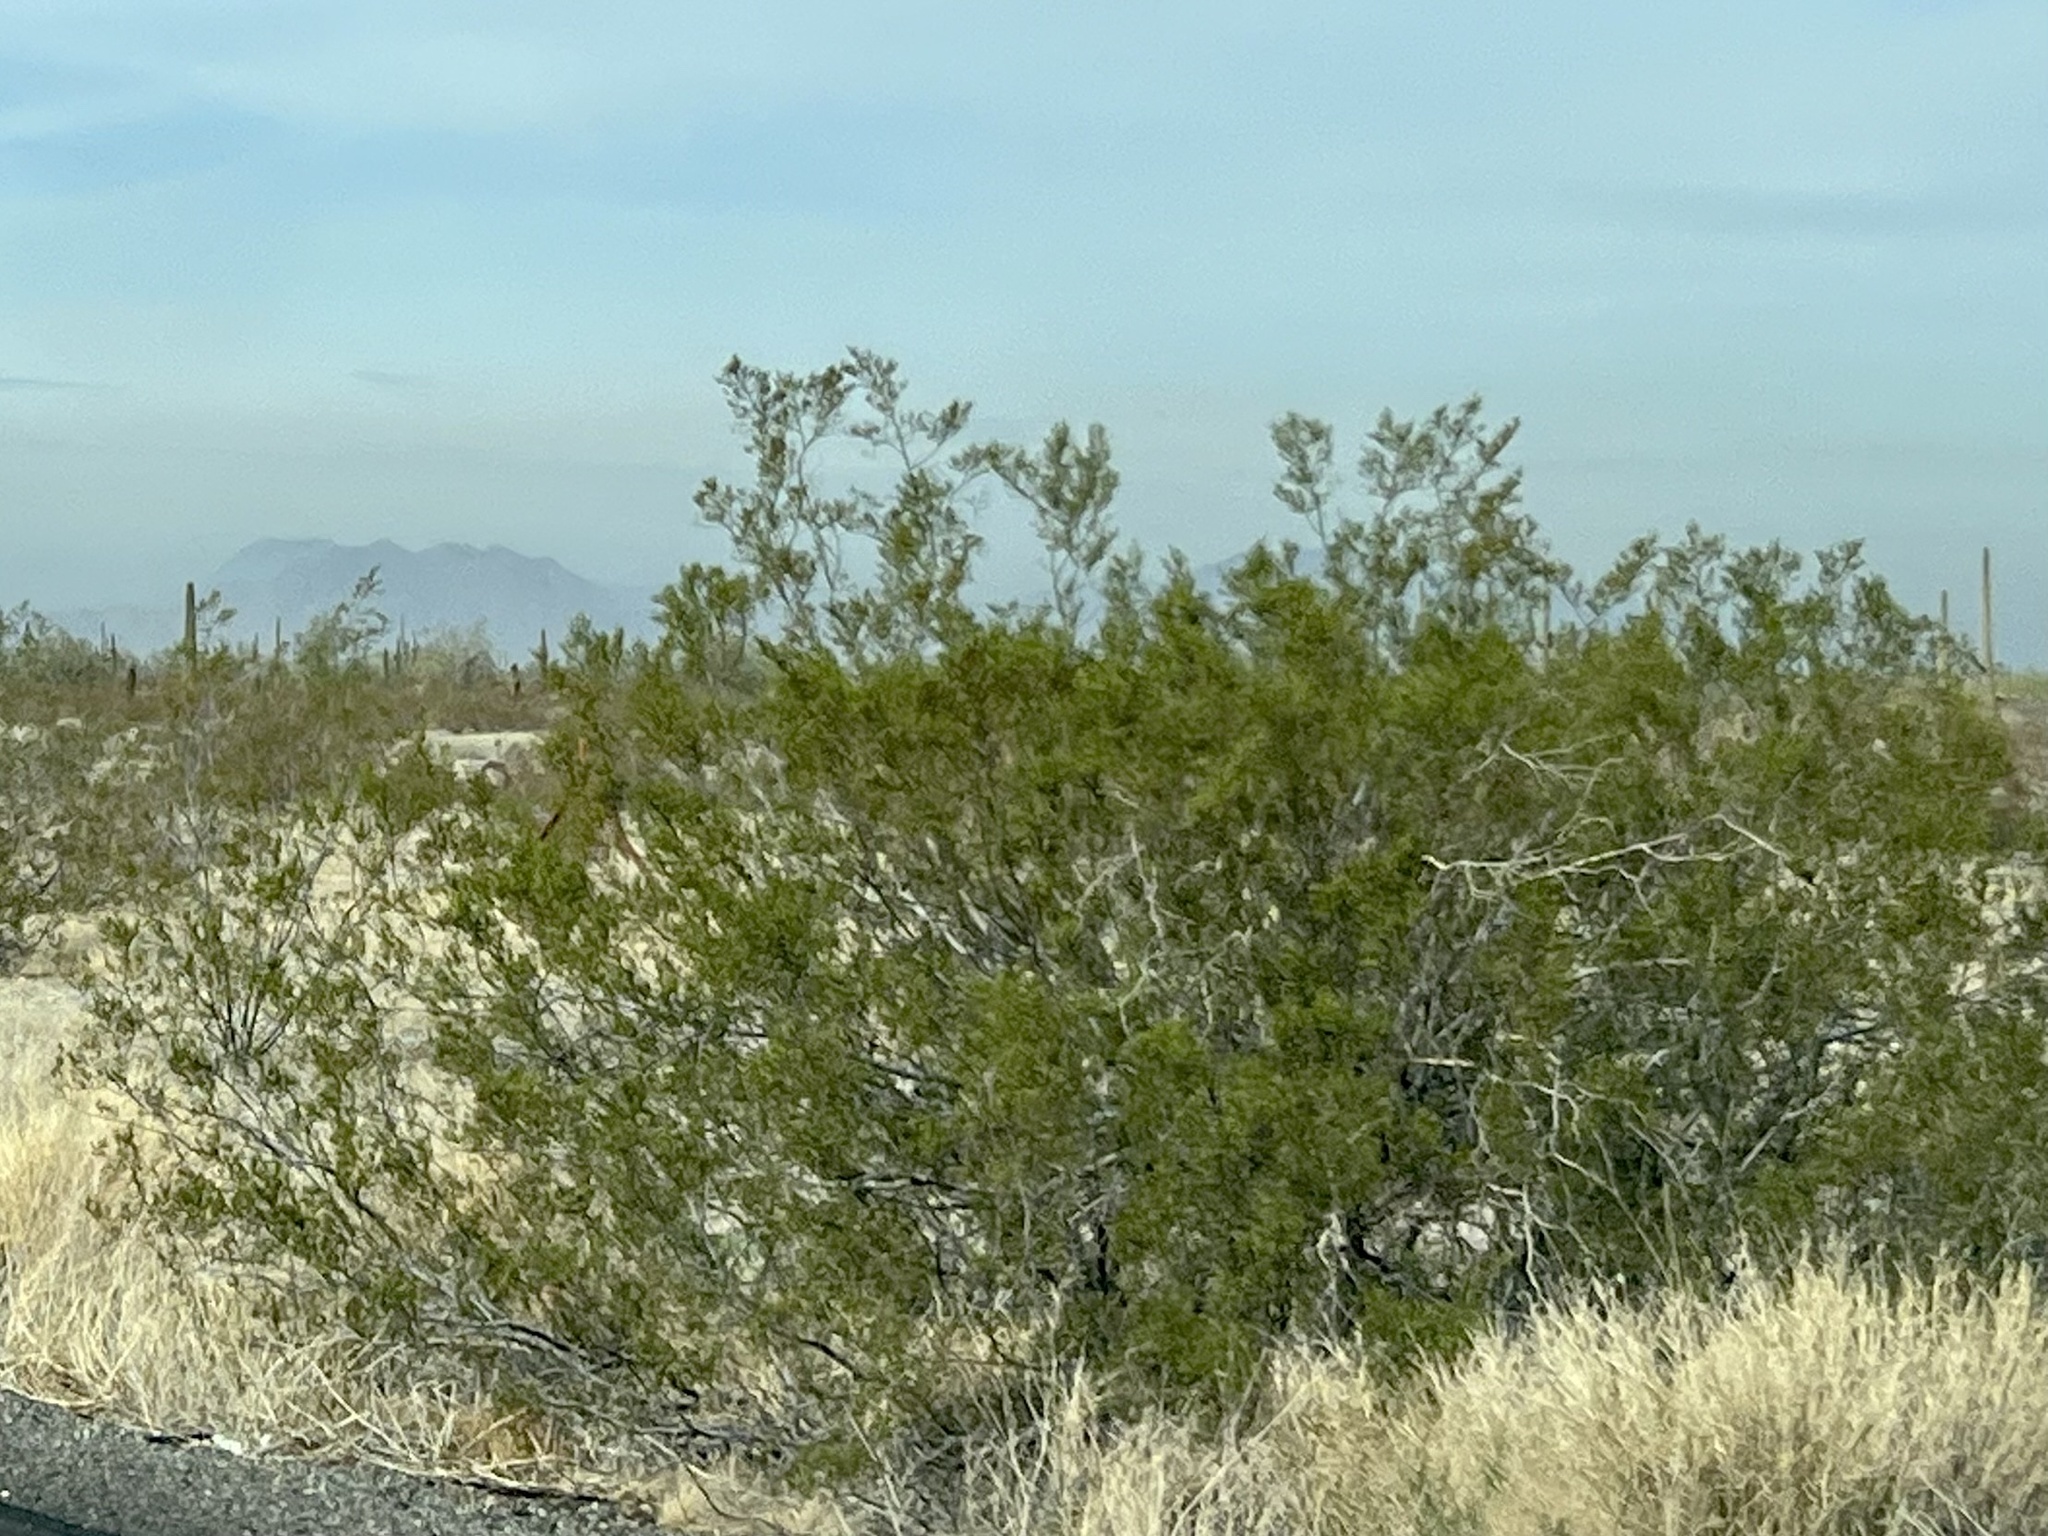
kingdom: Plantae
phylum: Tracheophyta
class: Magnoliopsida
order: Zygophyllales
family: Zygophyllaceae
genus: Larrea
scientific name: Larrea tridentata
